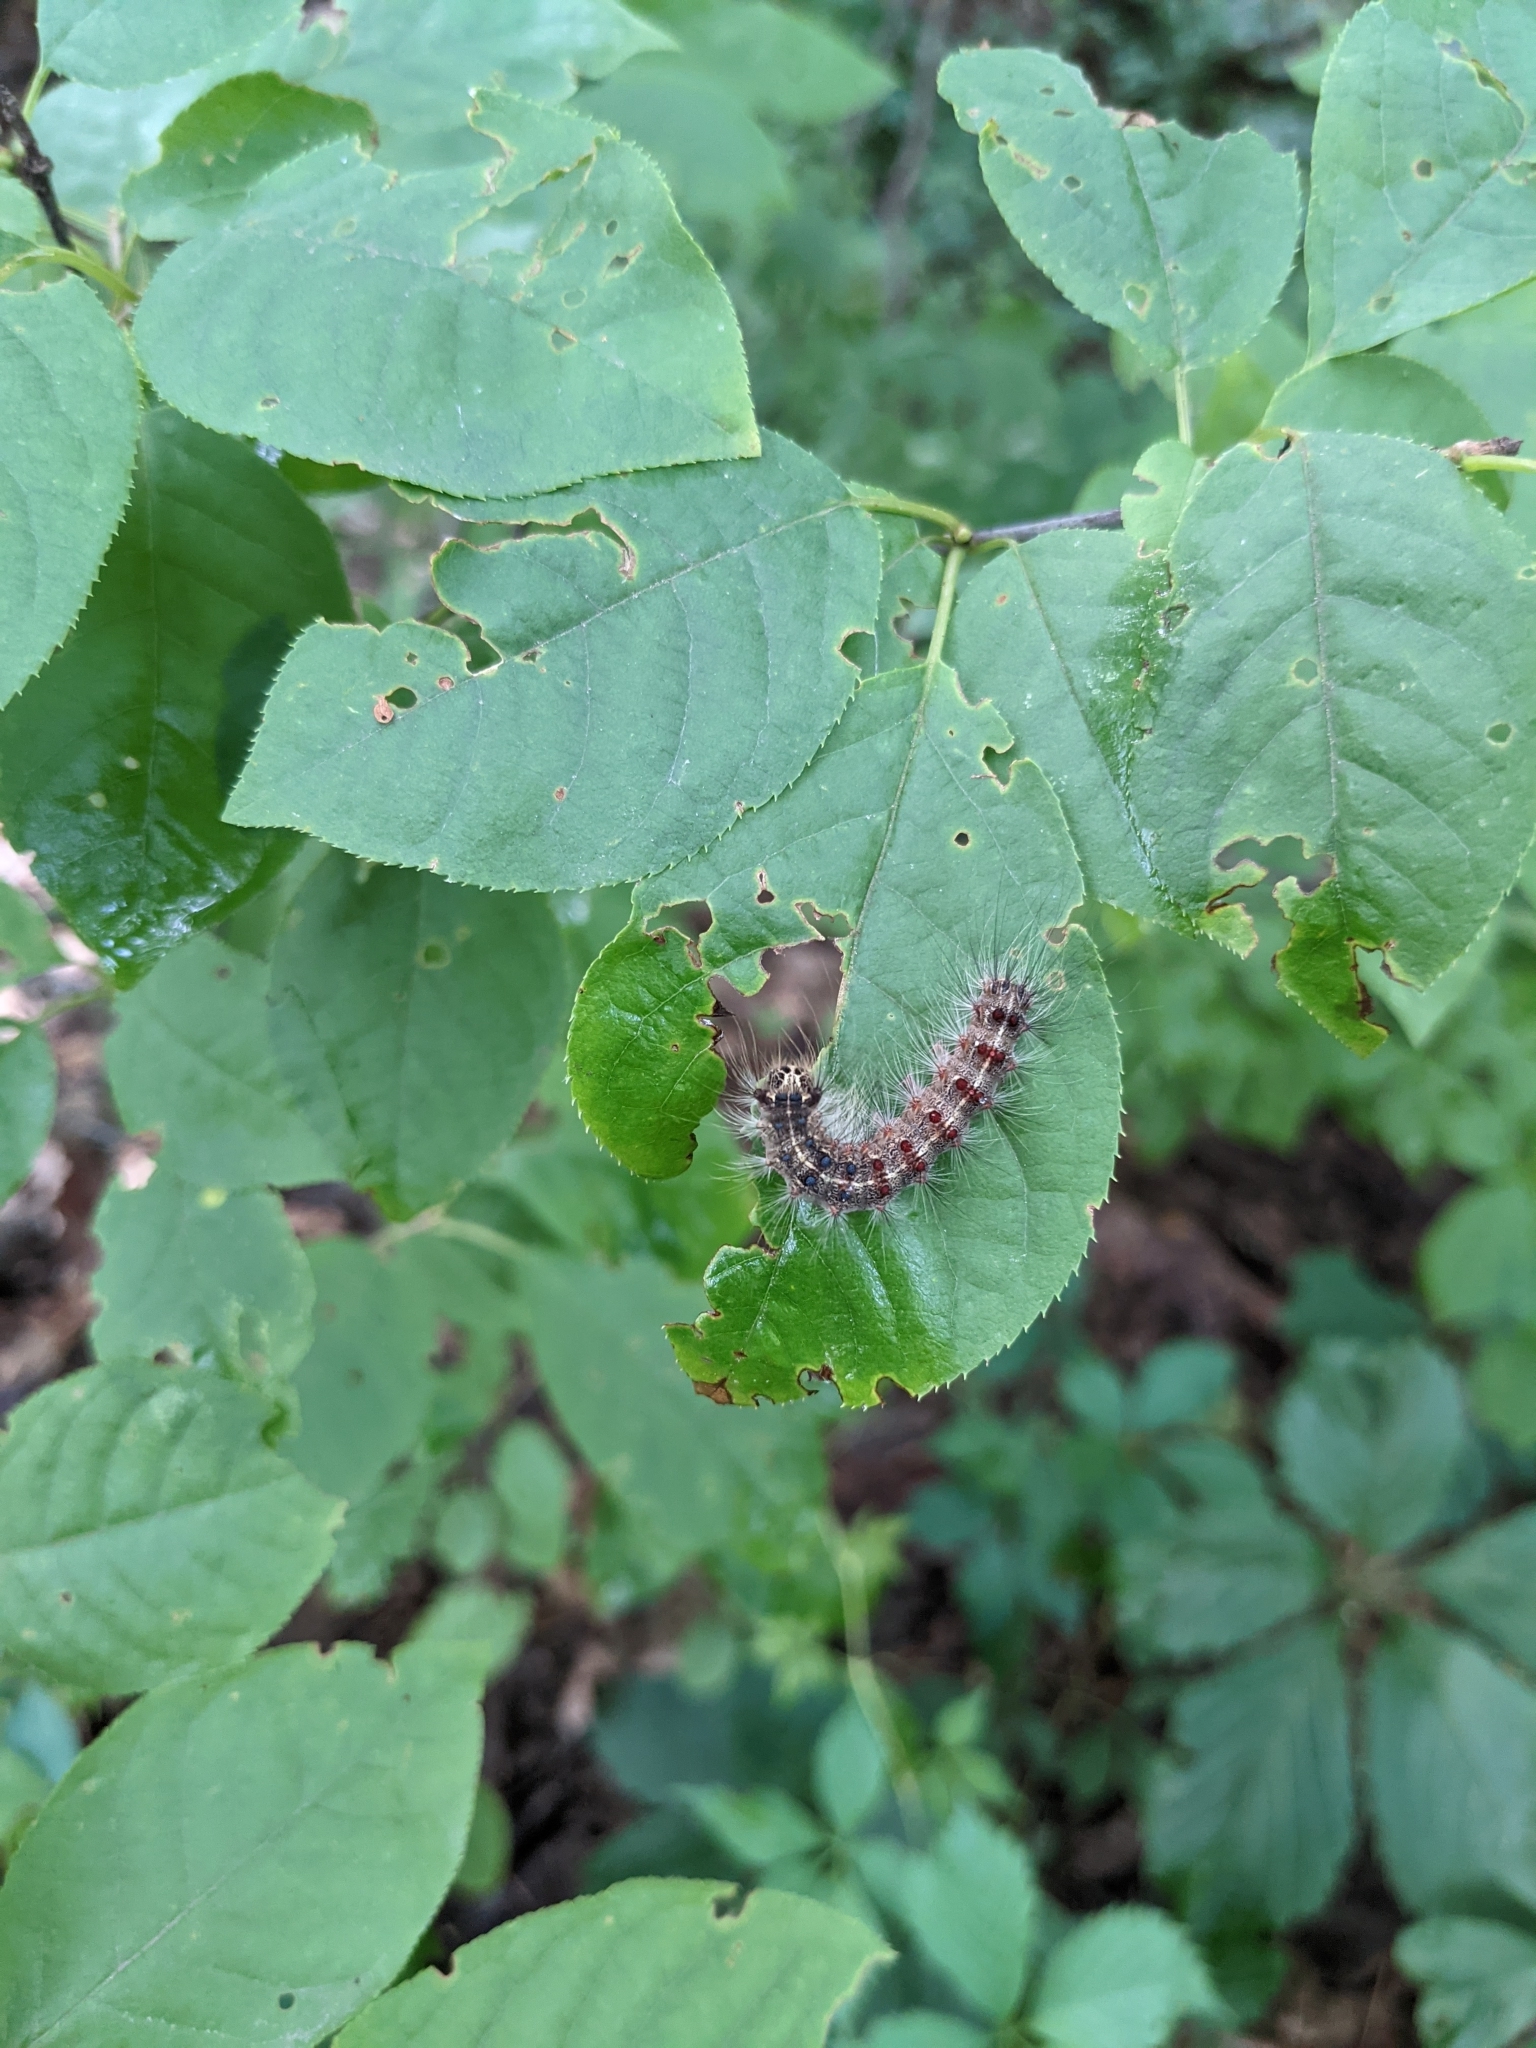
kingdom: Animalia
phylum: Arthropoda
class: Insecta
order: Lepidoptera
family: Erebidae
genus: Lymantria
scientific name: Lymantria dispar
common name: Gypsy moth
